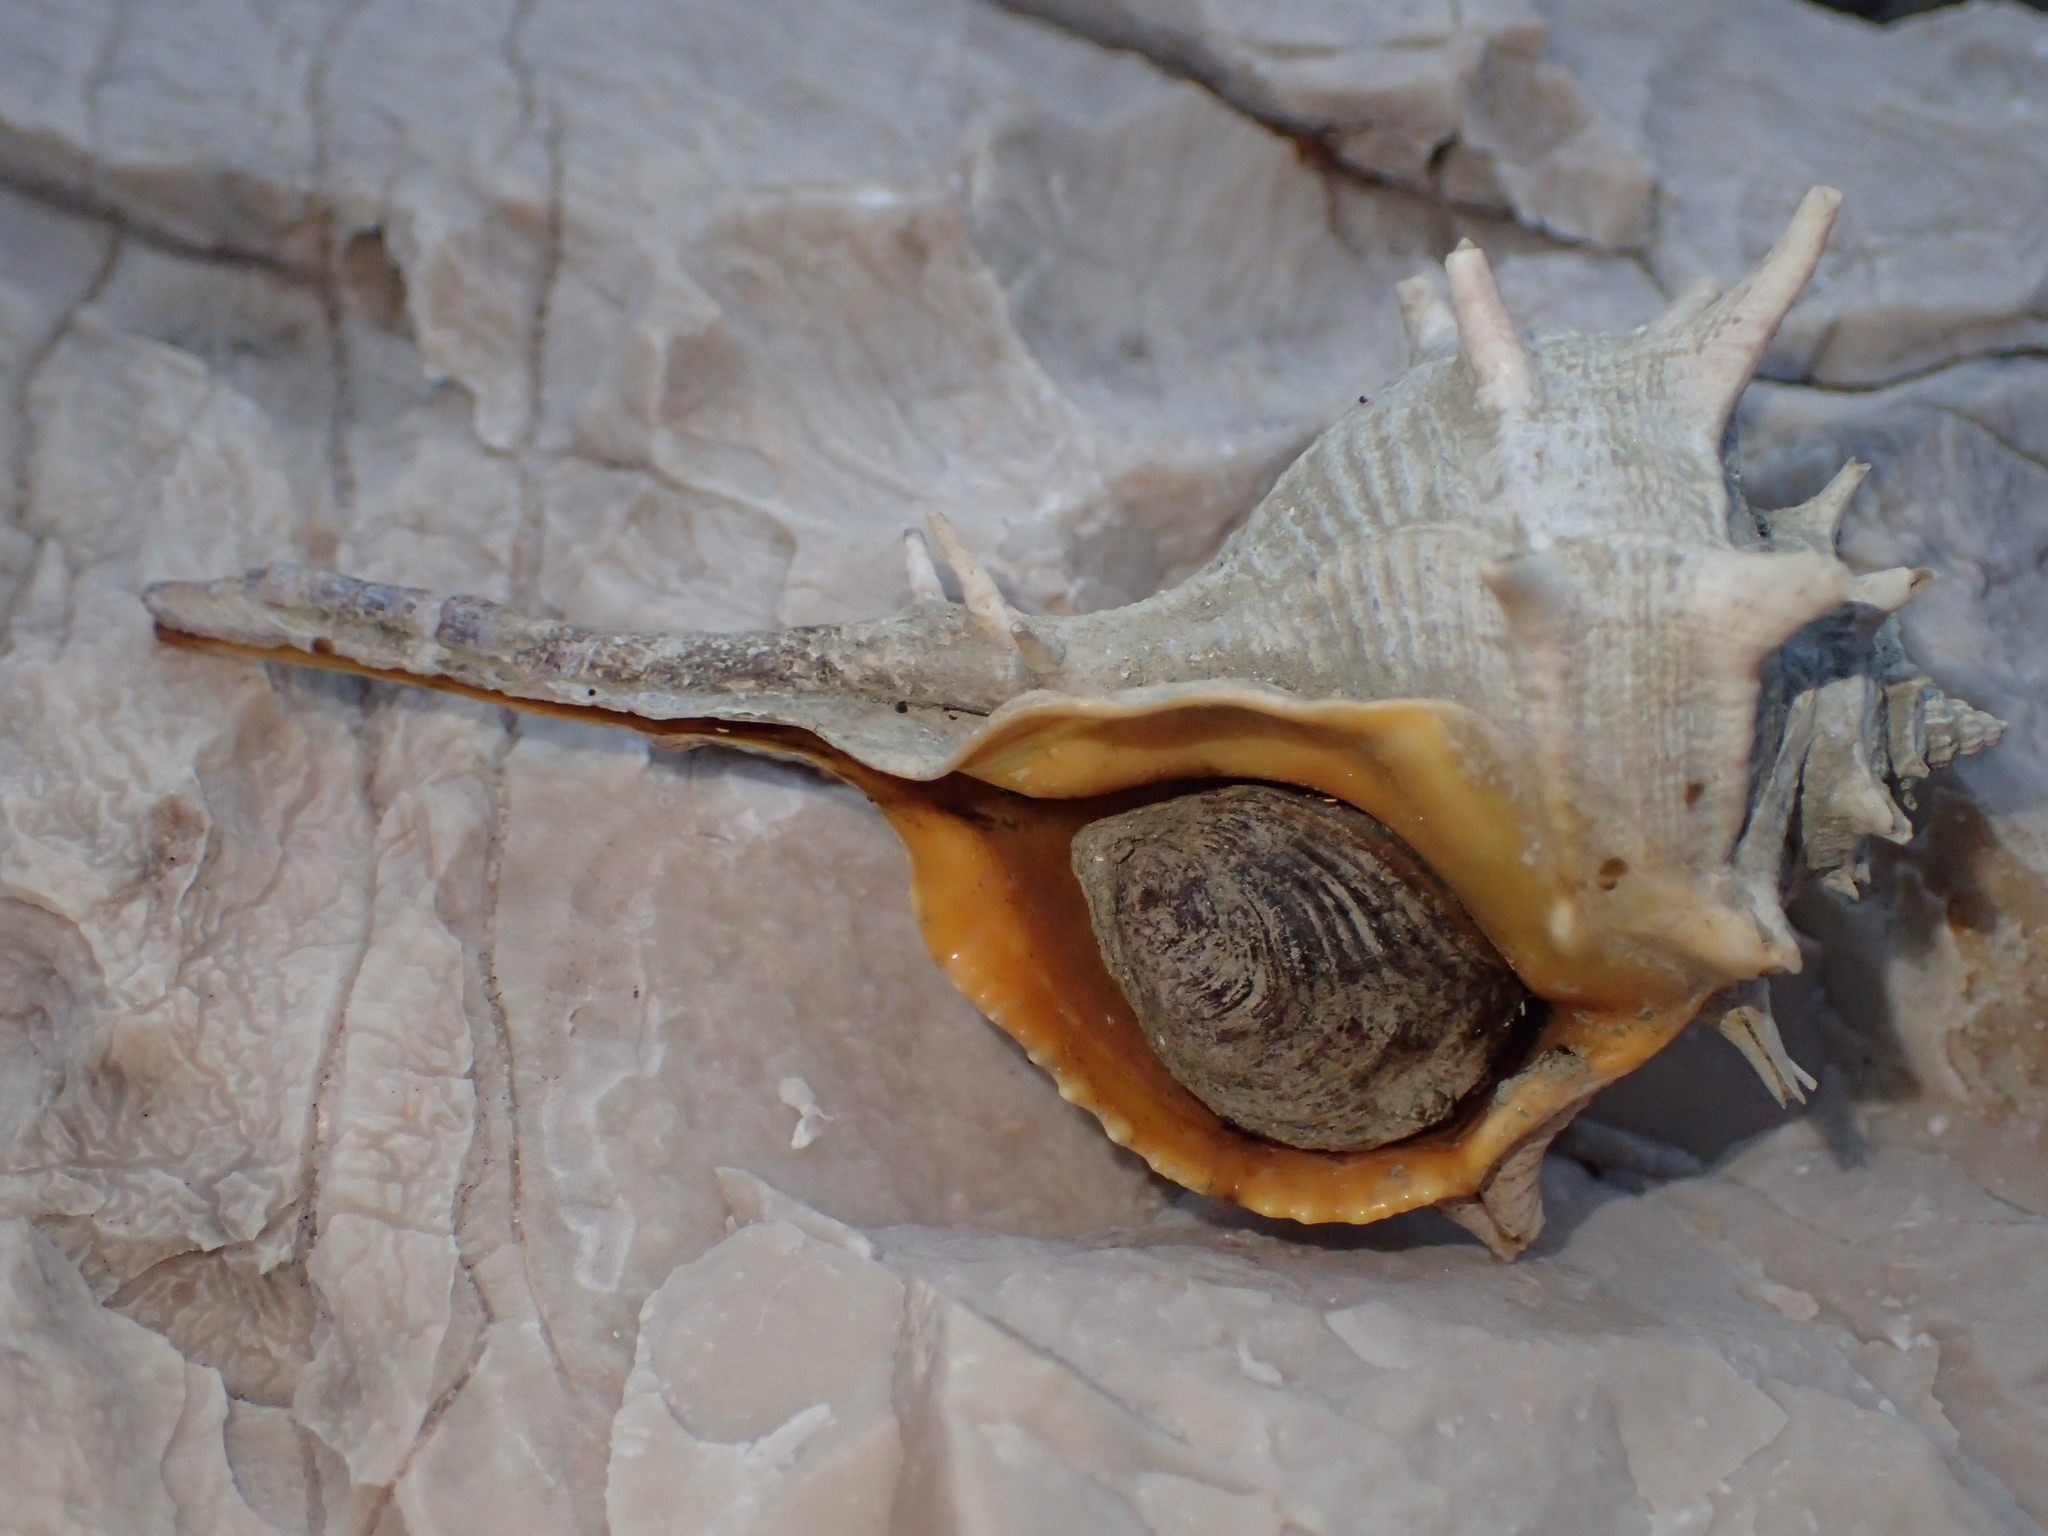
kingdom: Animalia
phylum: Mollusca
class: Gastropoda
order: Neogastropoda
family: Muricidae
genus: Bolinus
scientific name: Bolinus brandaris
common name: Dye murex
